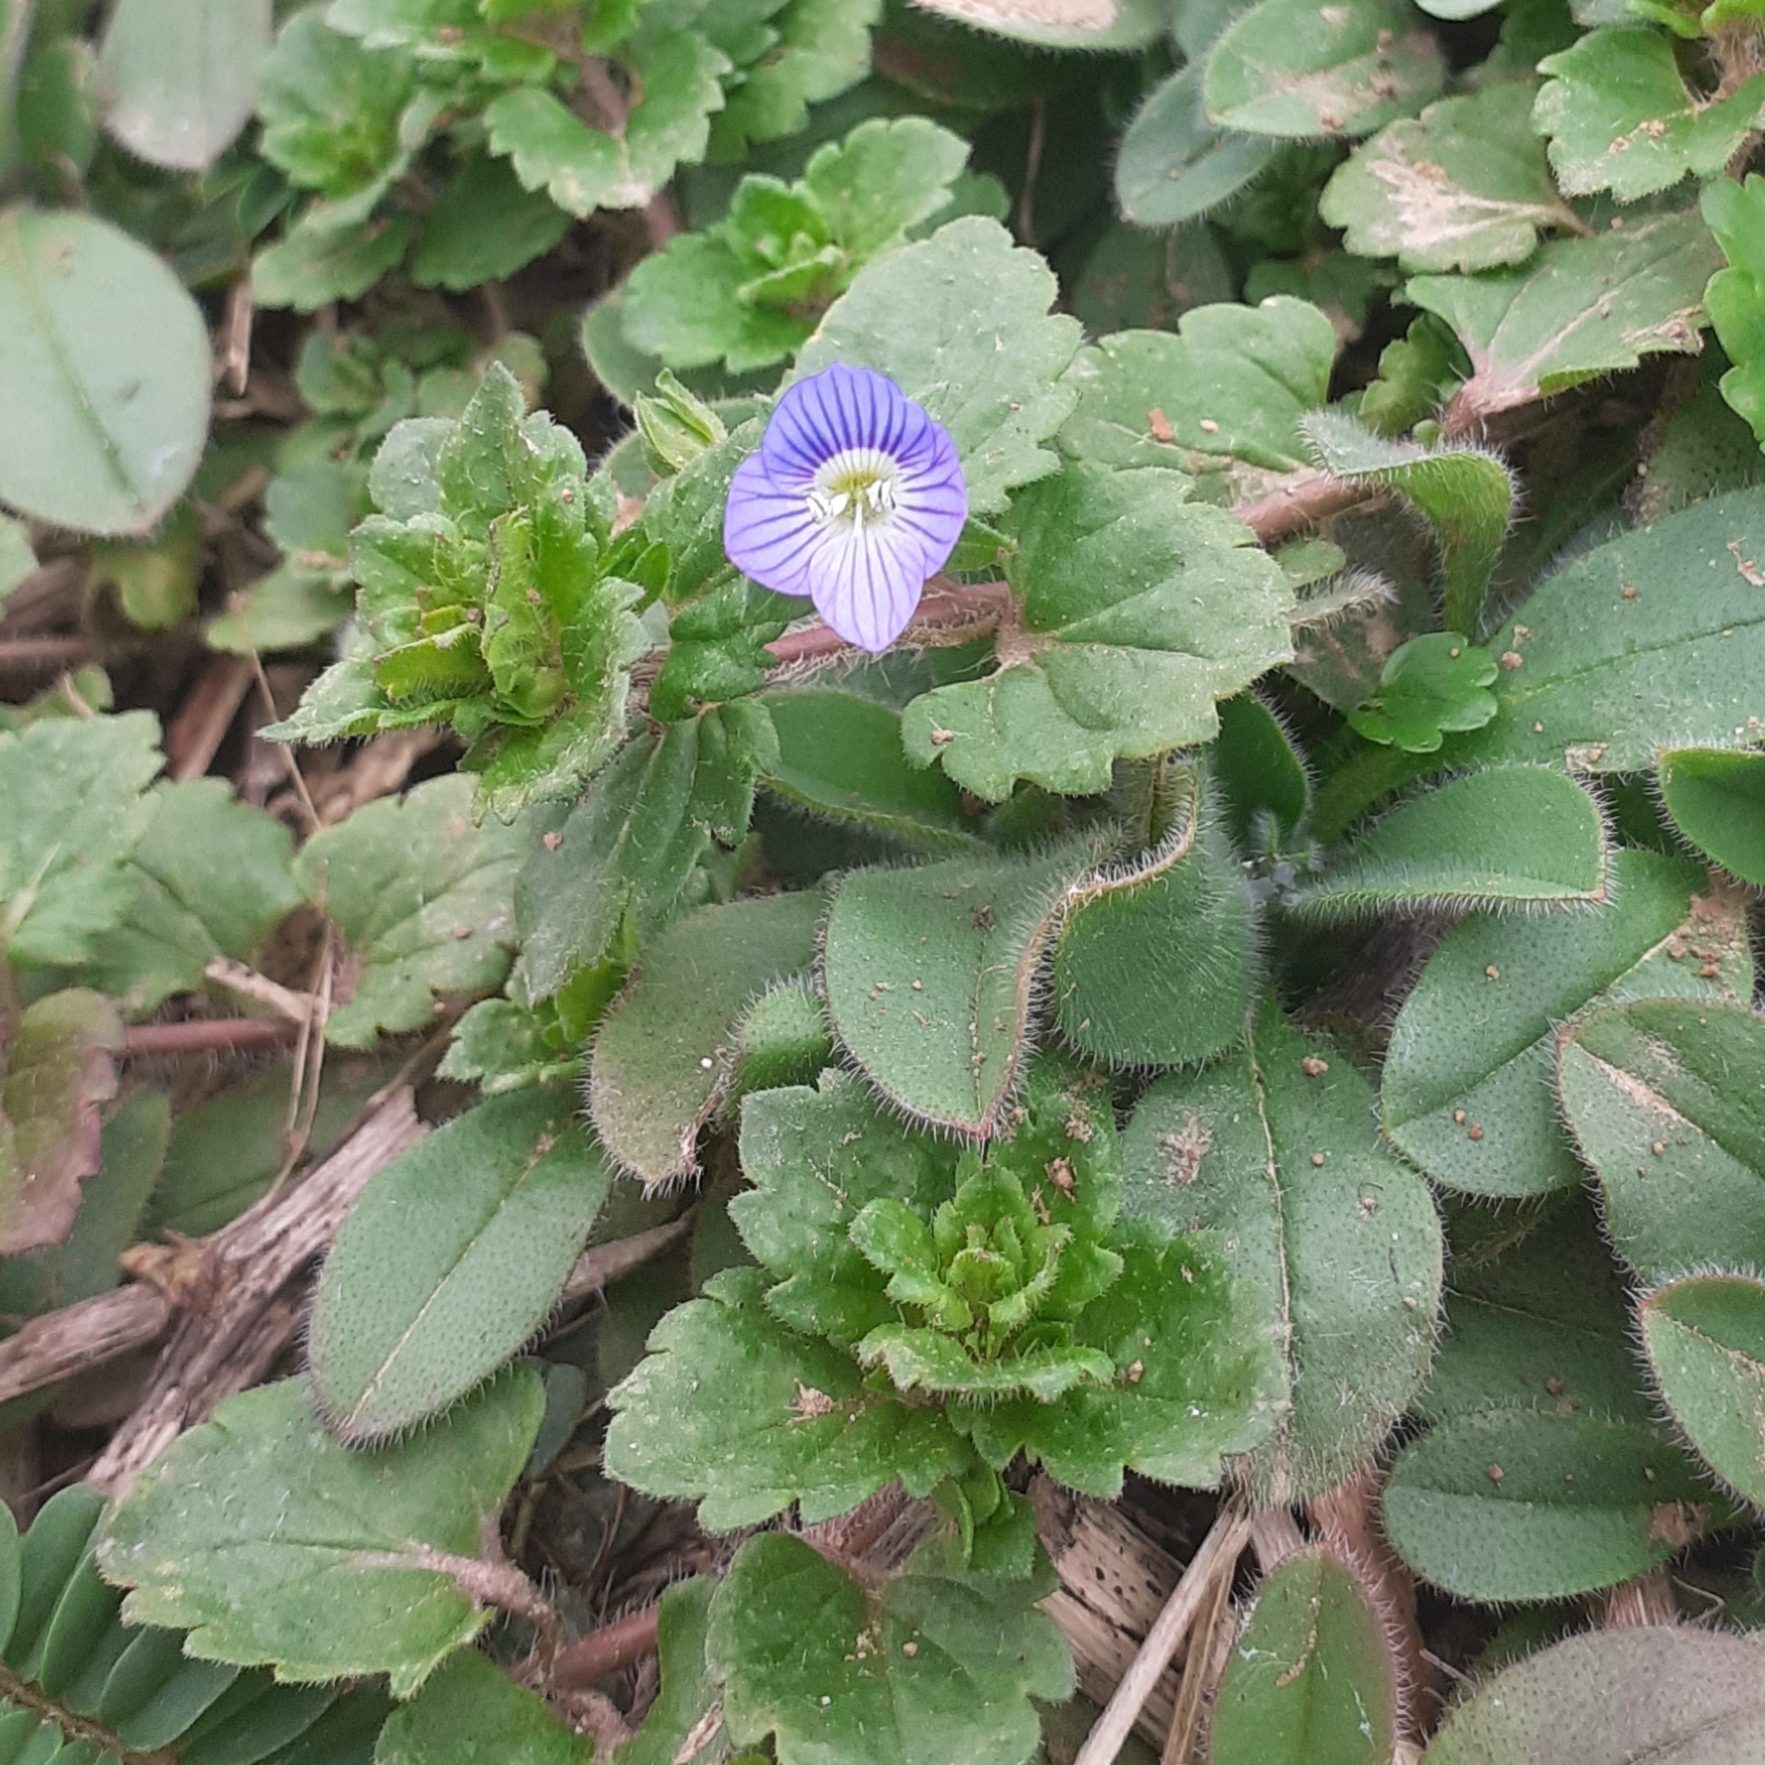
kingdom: Plantae
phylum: Tracheophyta
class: Magnoliopsida
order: Lamiales
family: Plantaginaceae
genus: Veronica
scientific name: Veronica persica
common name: Common field-speedwell
